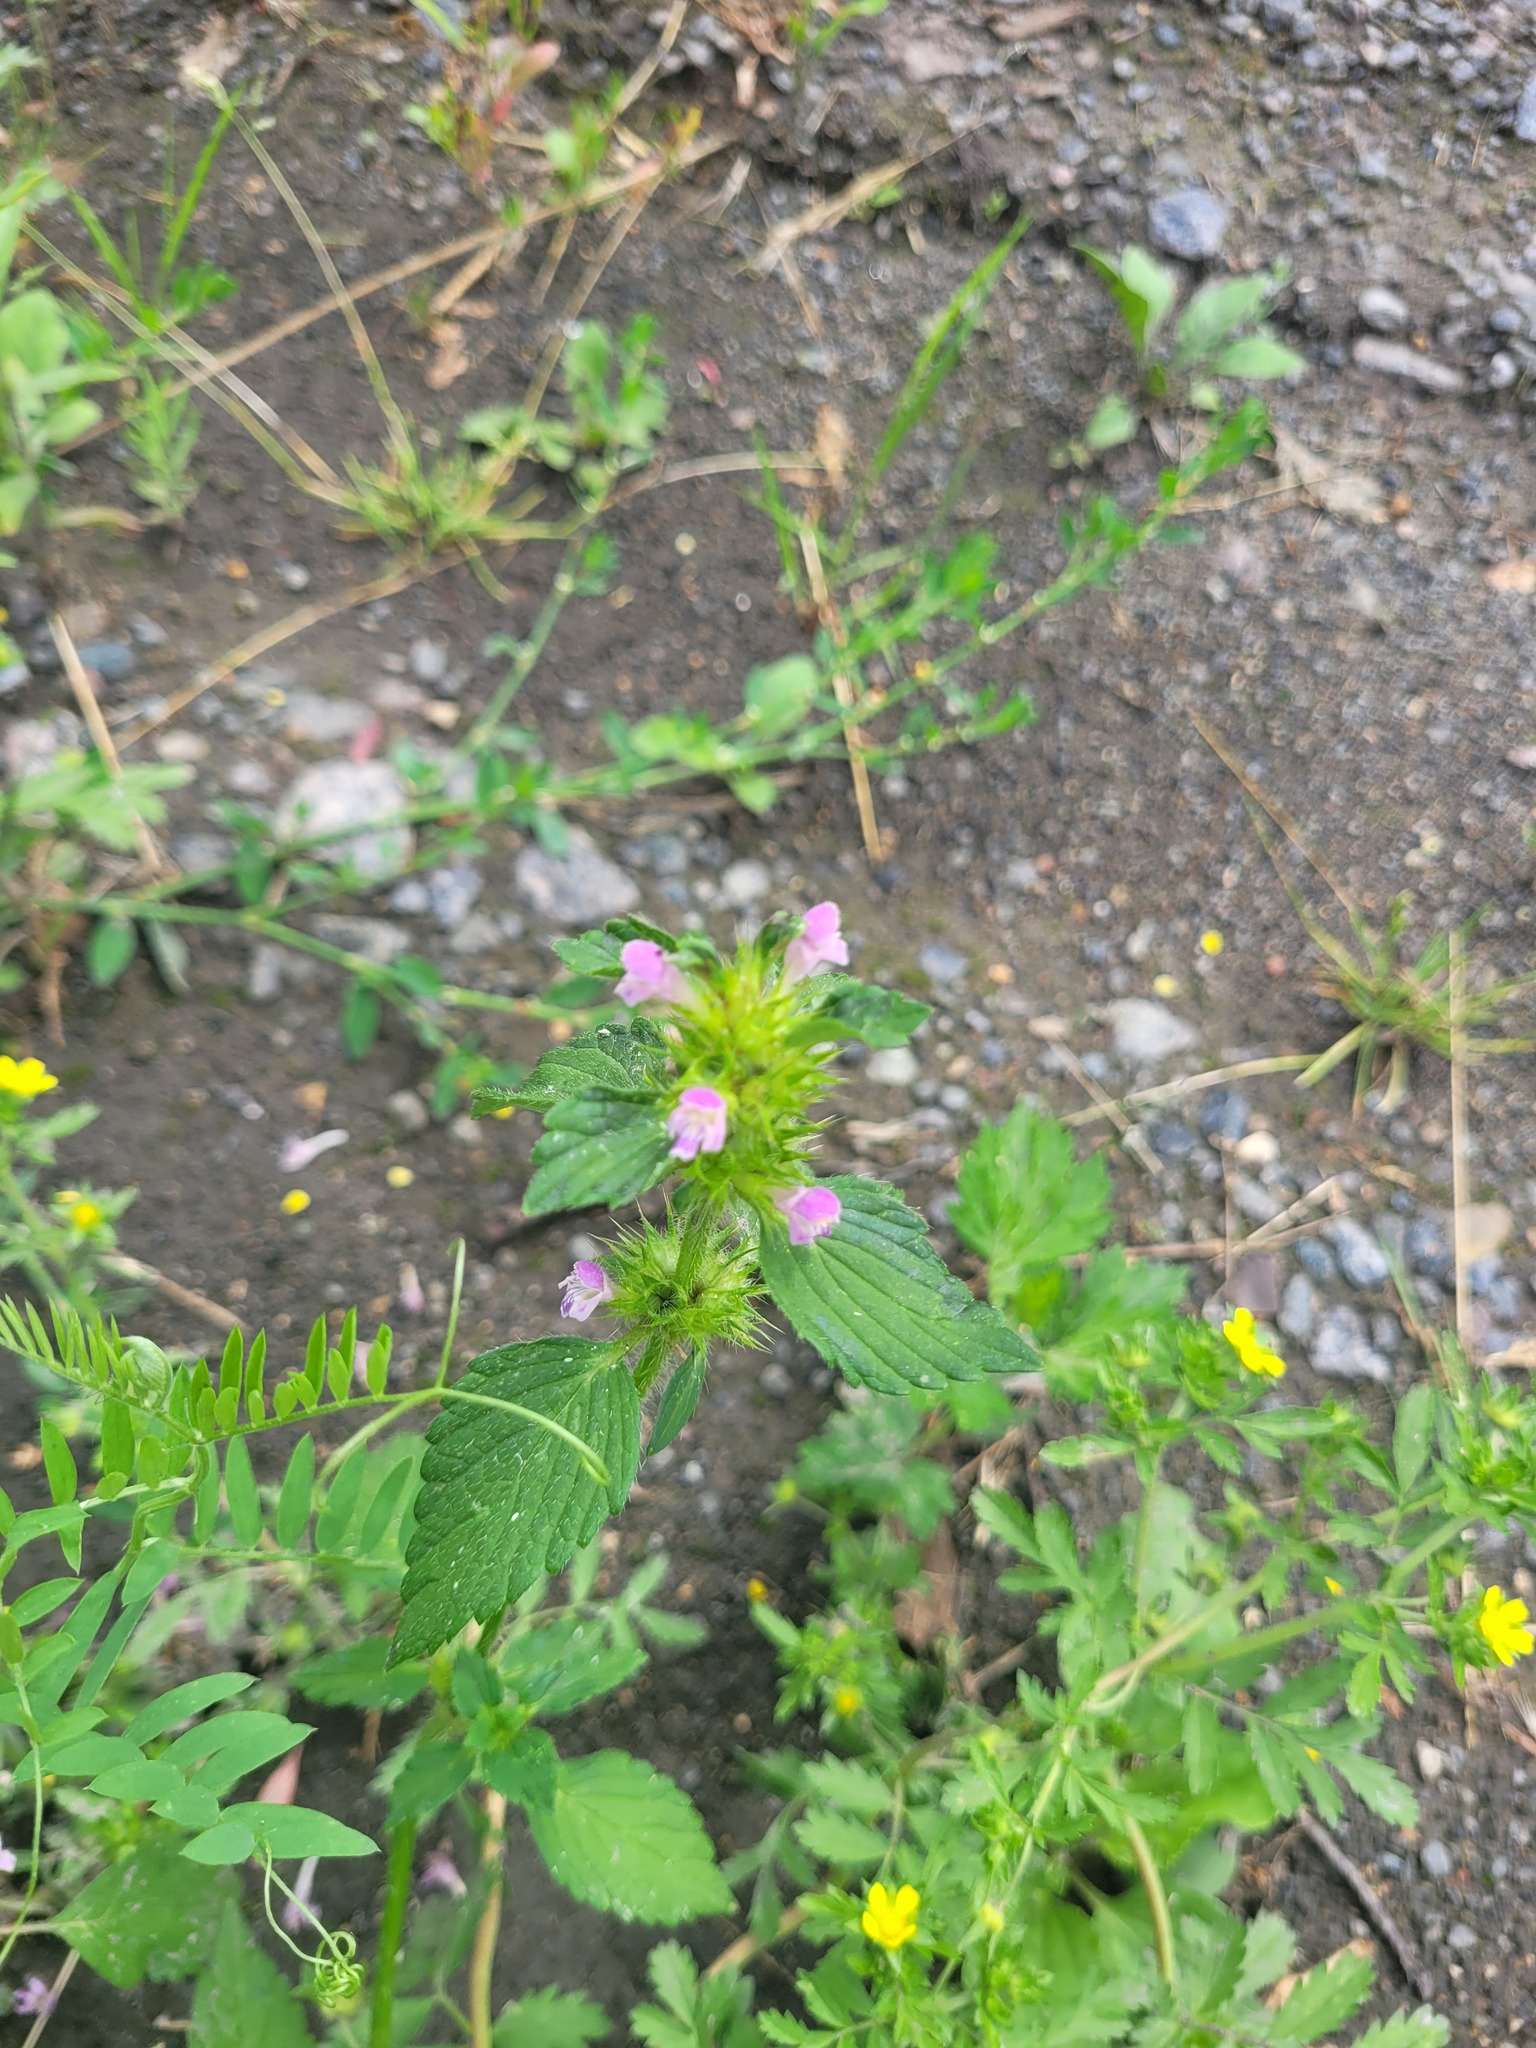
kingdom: Plantae
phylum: Tracheophyta
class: Magnoliopsida
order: Lamiales
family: Lamiaceae
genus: Galeopsis
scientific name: Galeopsis bifida
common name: Bifid hemp-nettle
